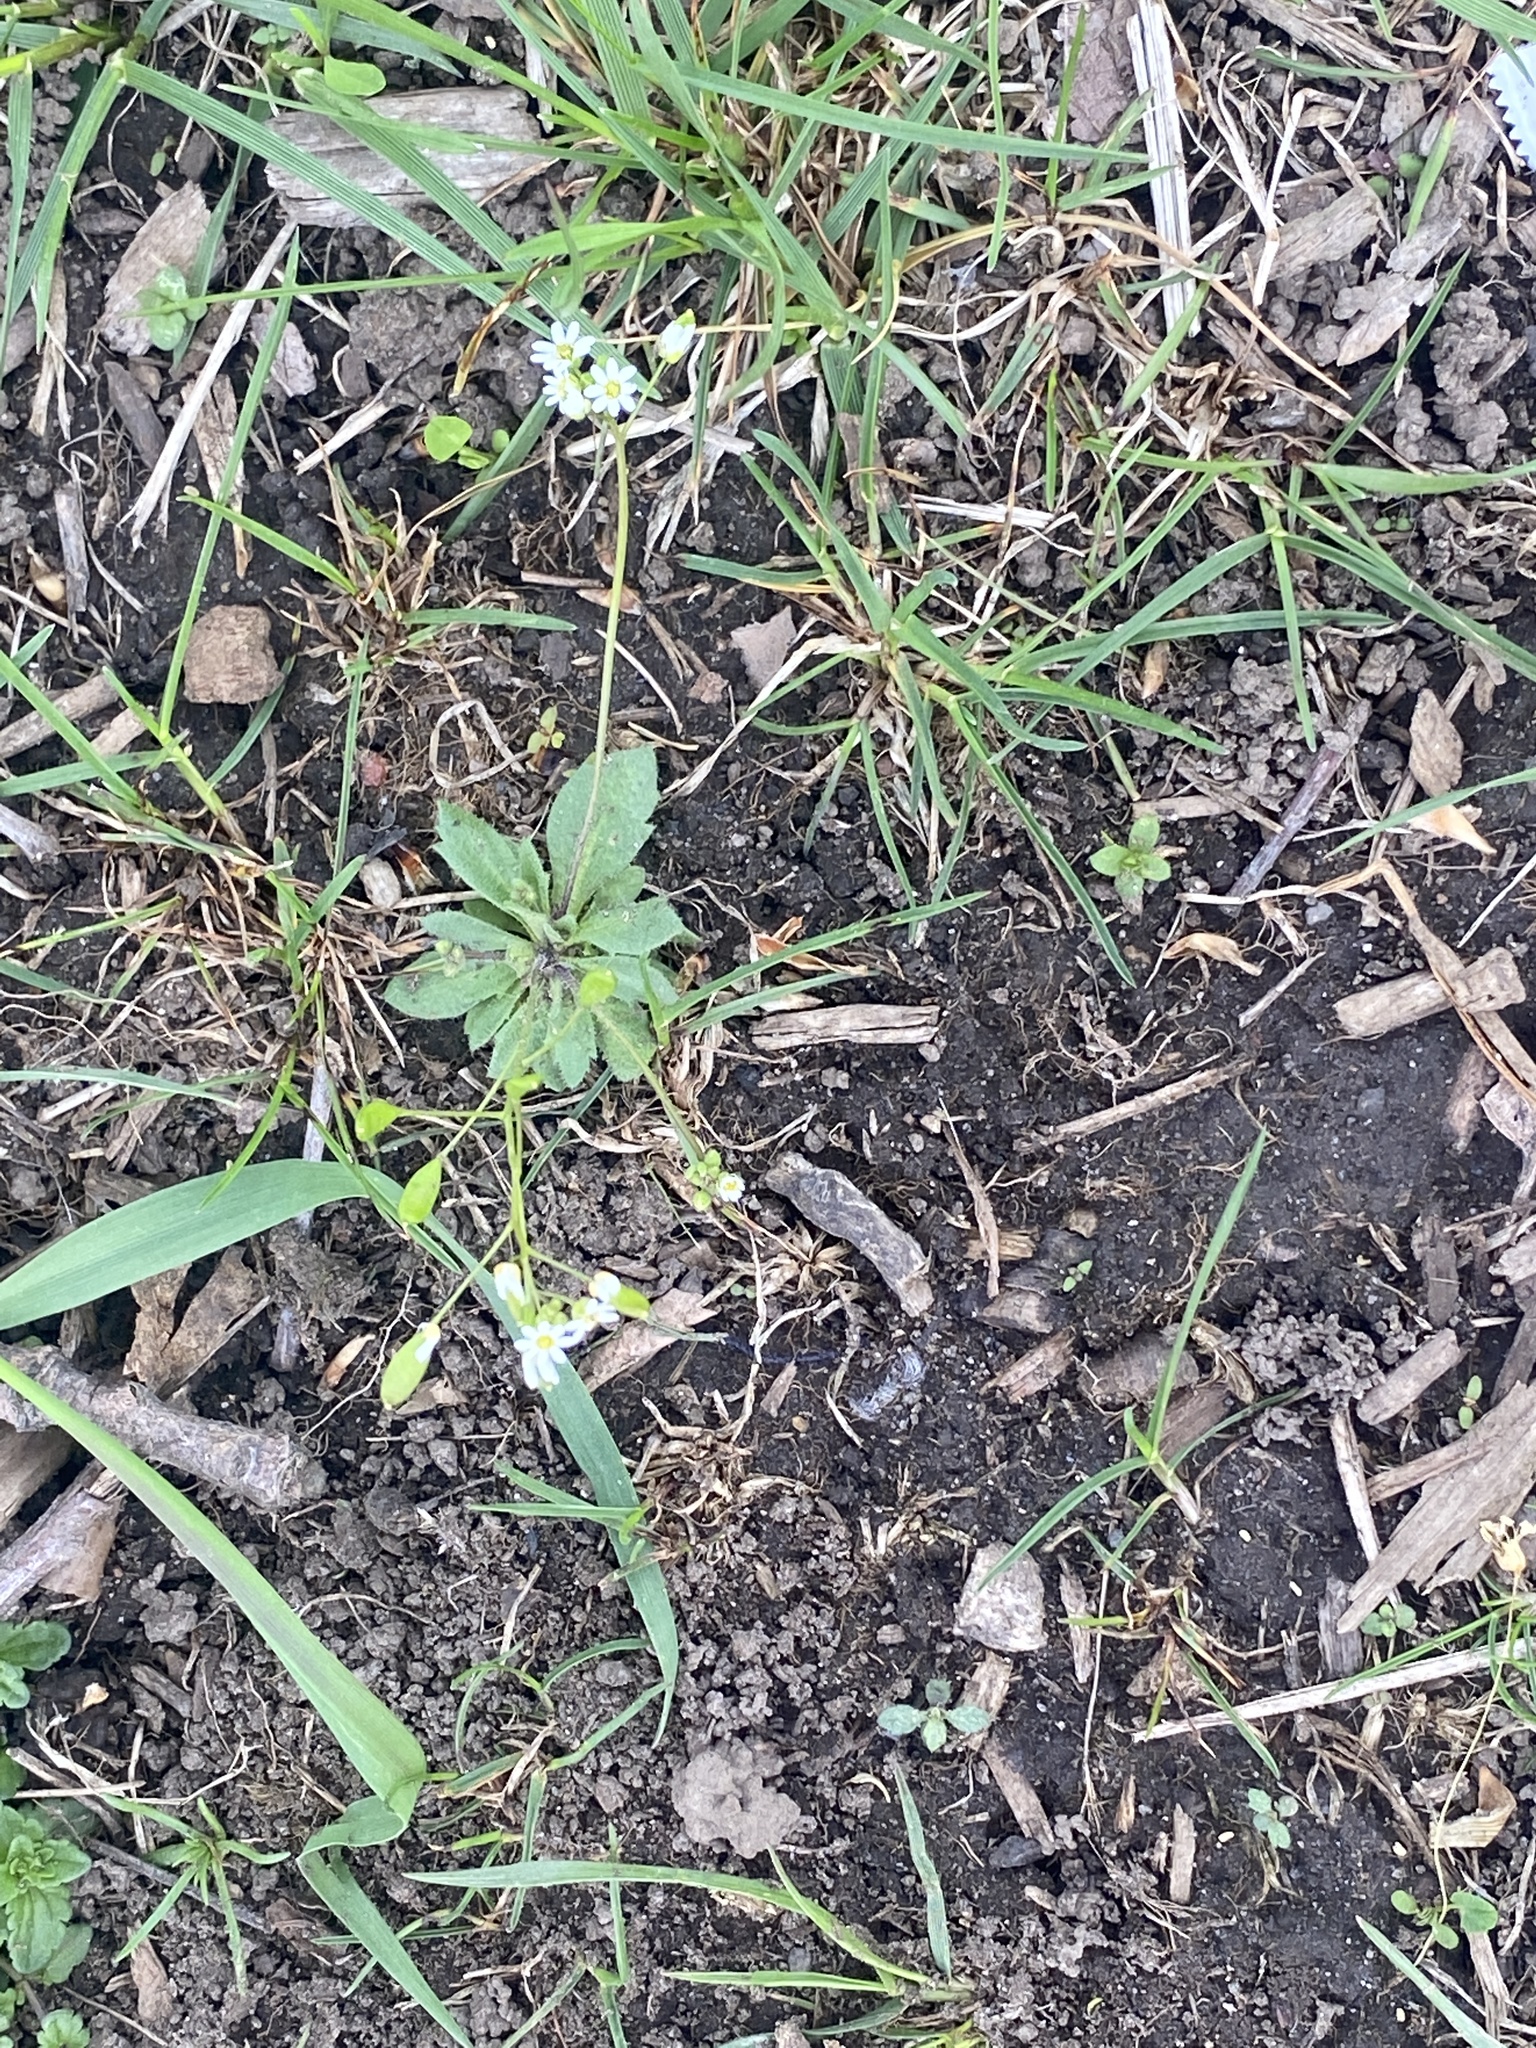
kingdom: Plantae
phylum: Tracheophyta
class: Magnoliopsida
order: Brassicales
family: Brassicaceae
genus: Draba
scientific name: Draba verna
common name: Spring draba
